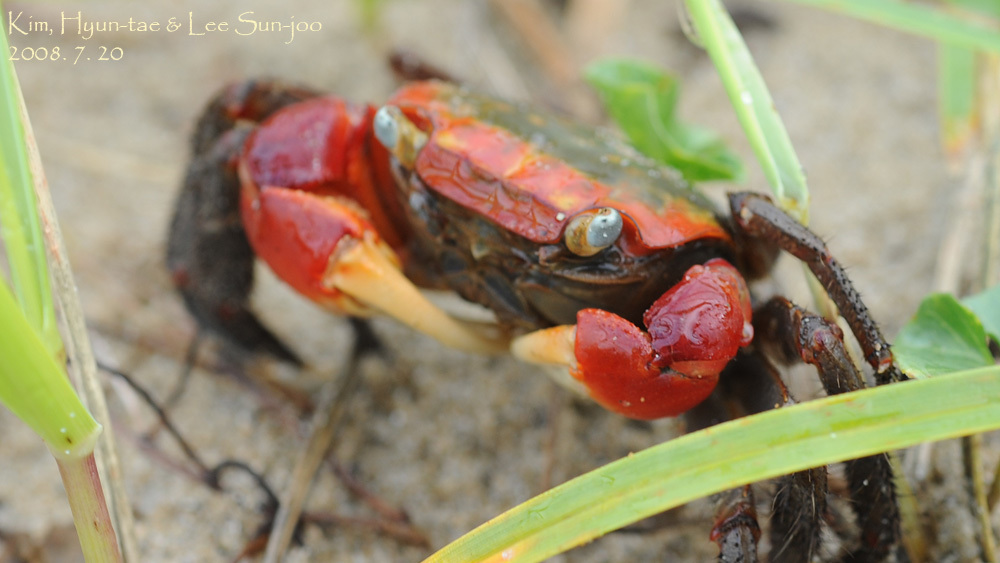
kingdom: Animalia
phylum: Arthropoda
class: Malacostraca
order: Decapoda
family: Sesarmidae
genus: Chiromantes
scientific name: Chiromantes haematocheir
